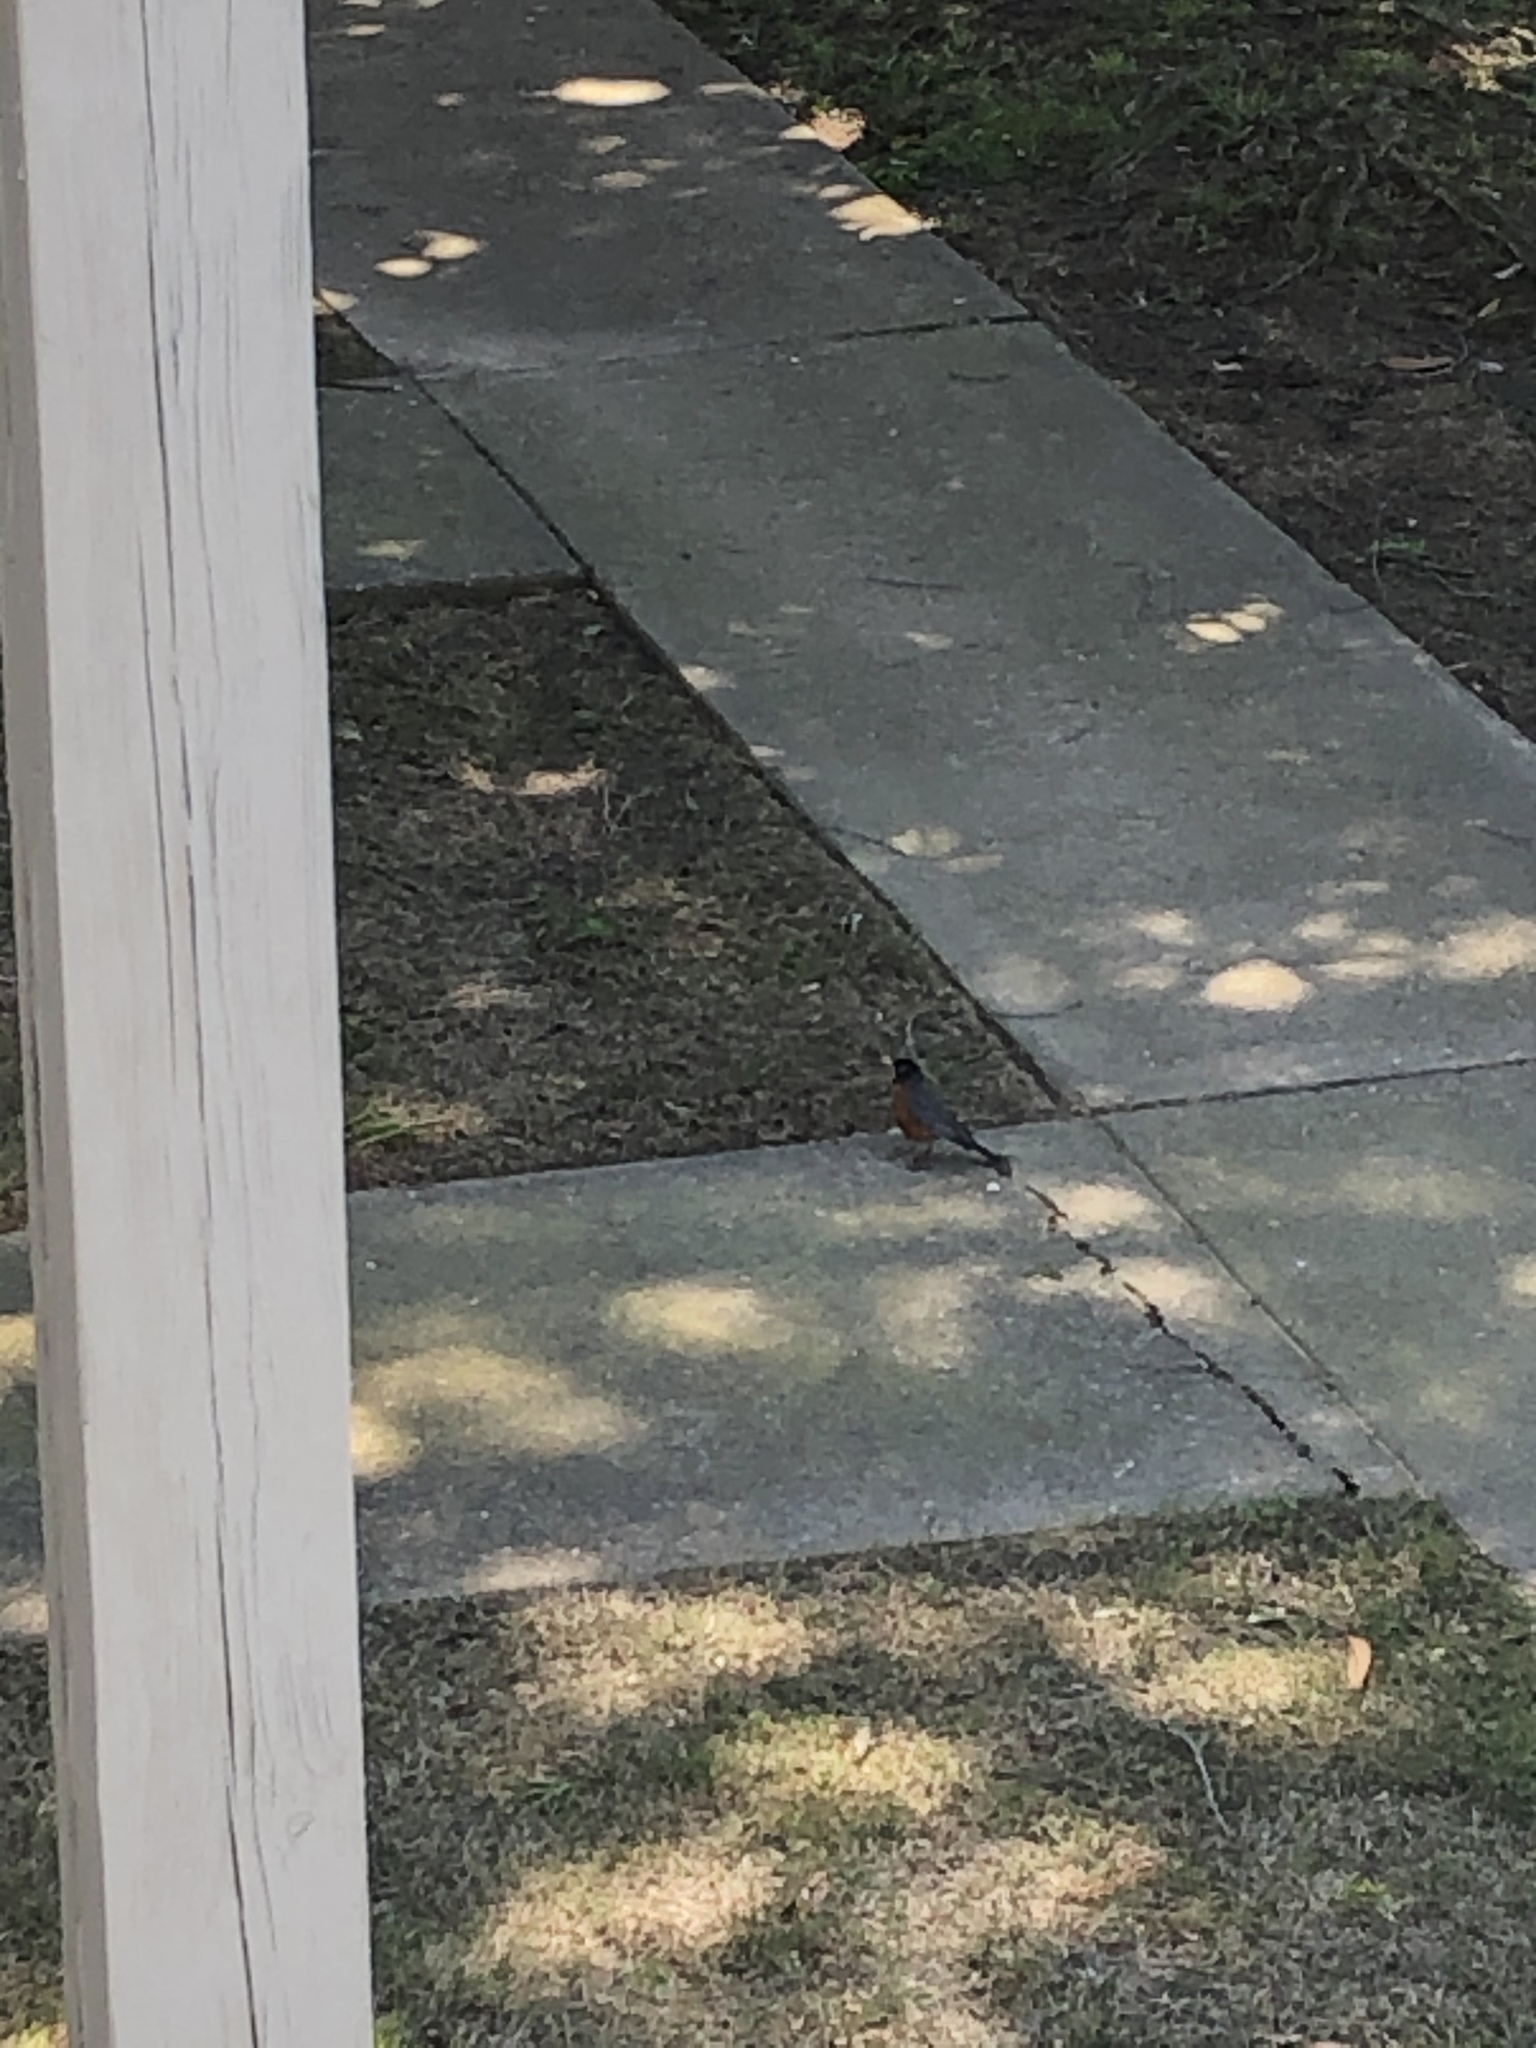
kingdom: Animalia
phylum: Chordata
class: Aves
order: Passeriformes
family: Turdidae
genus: Turdus
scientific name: Turdus migratorius
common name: American robin
